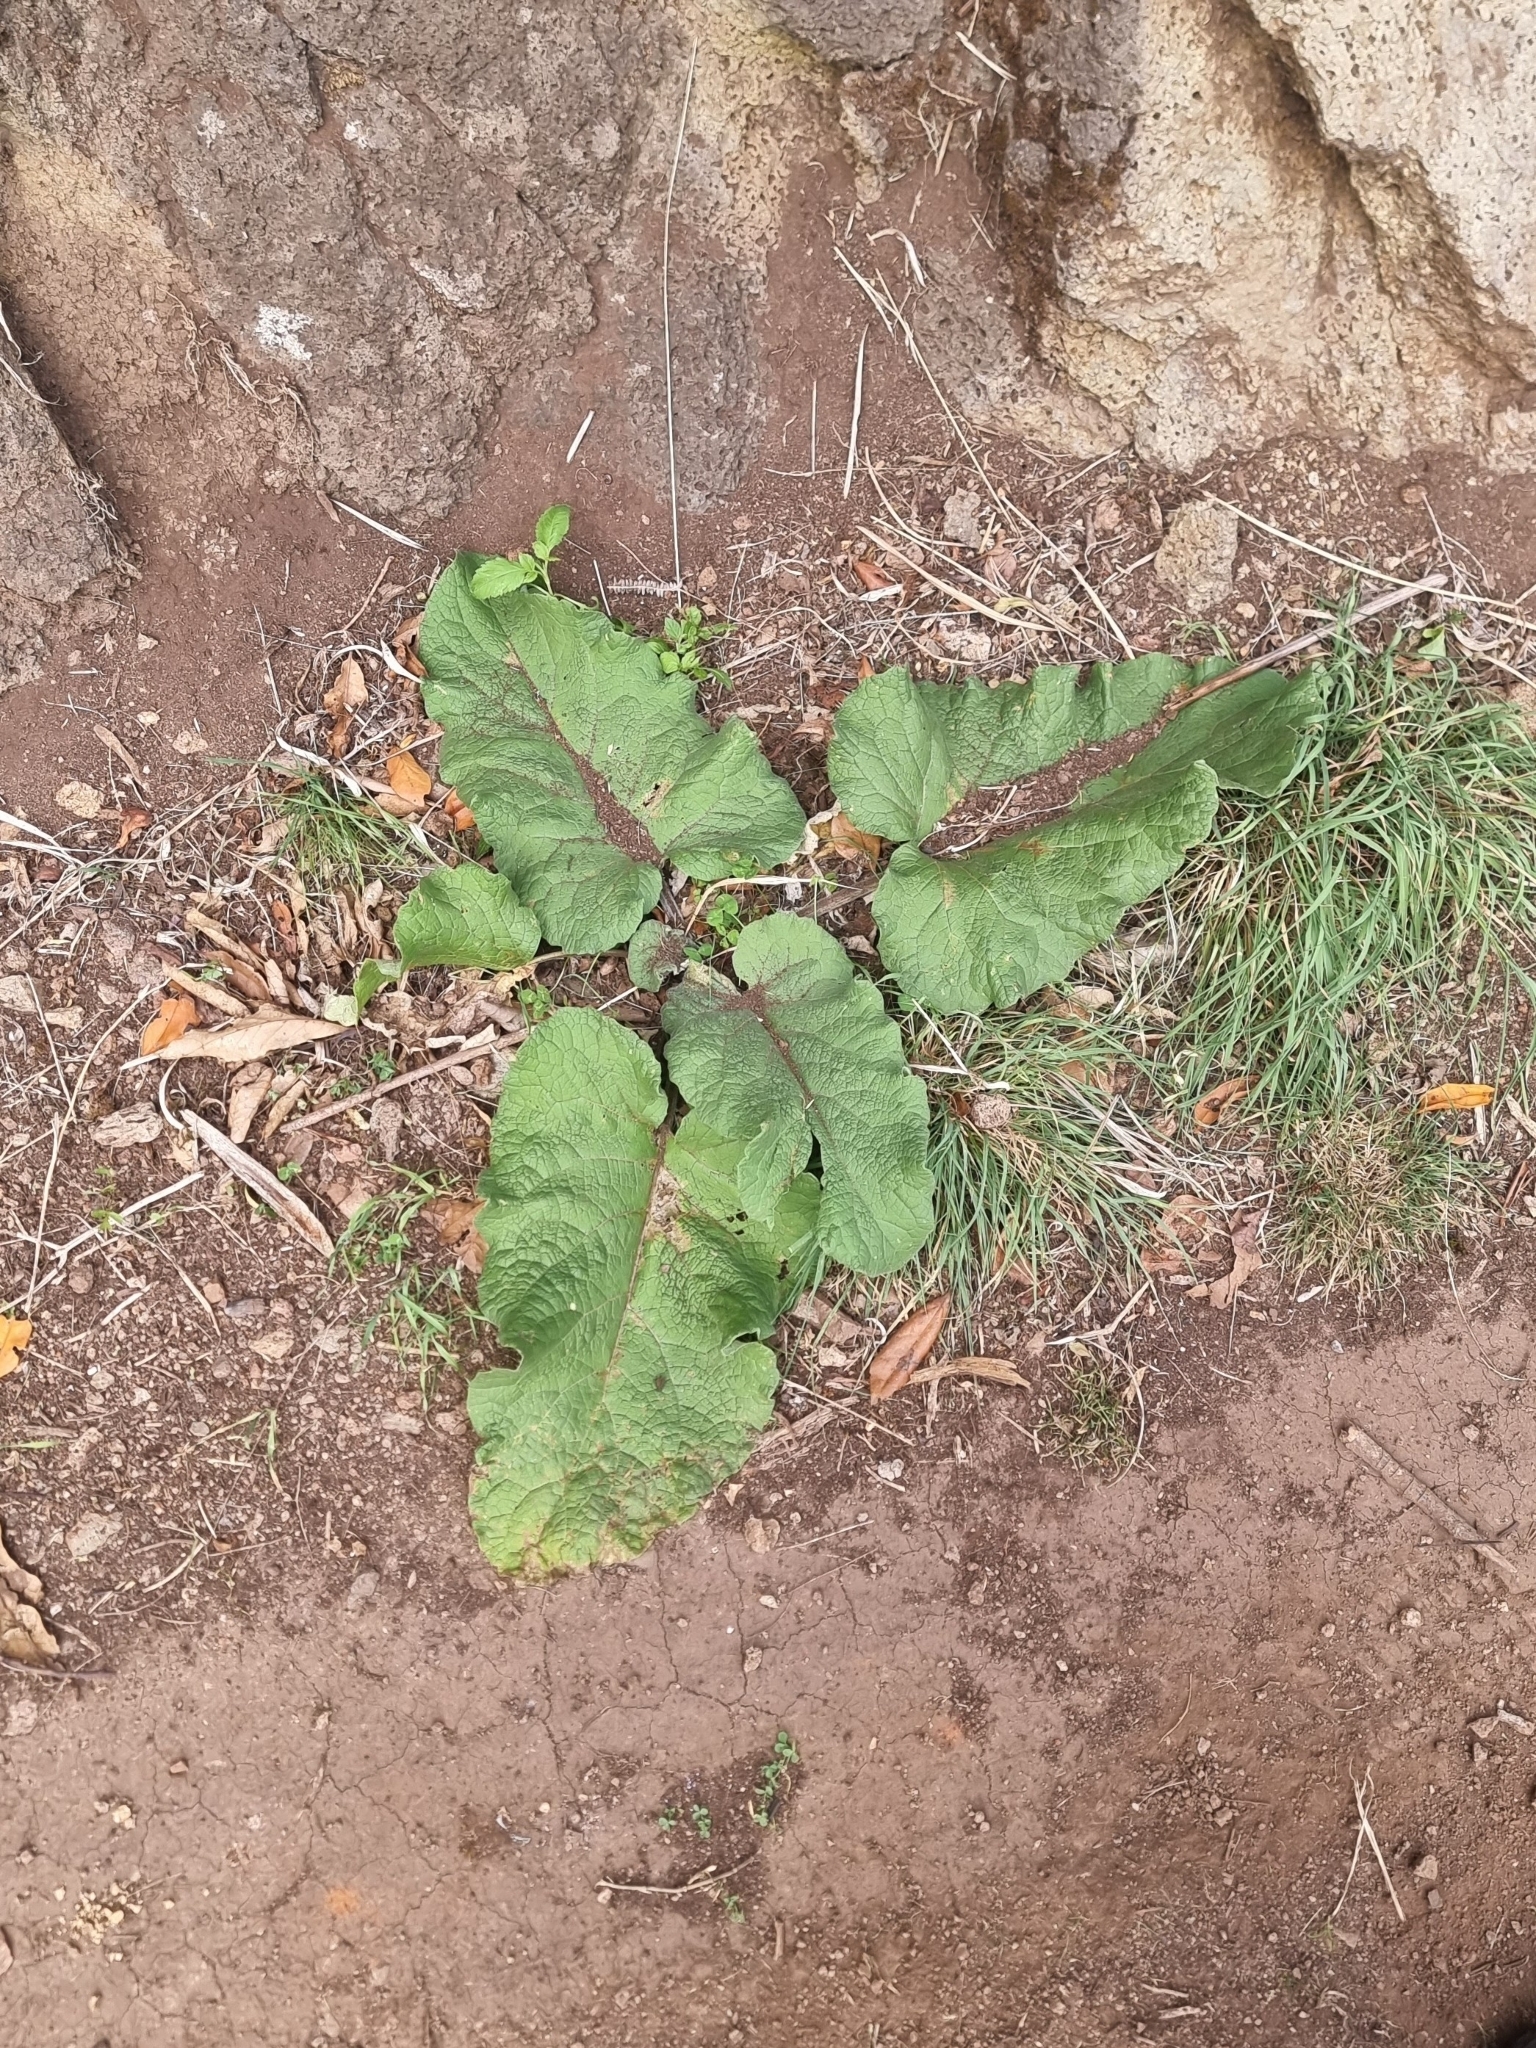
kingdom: Plantae
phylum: Tracheophyta
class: Magnoliopsida
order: Asterales
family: Asteraceae
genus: Arctium
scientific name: Arctium minus
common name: Lesser burdock
